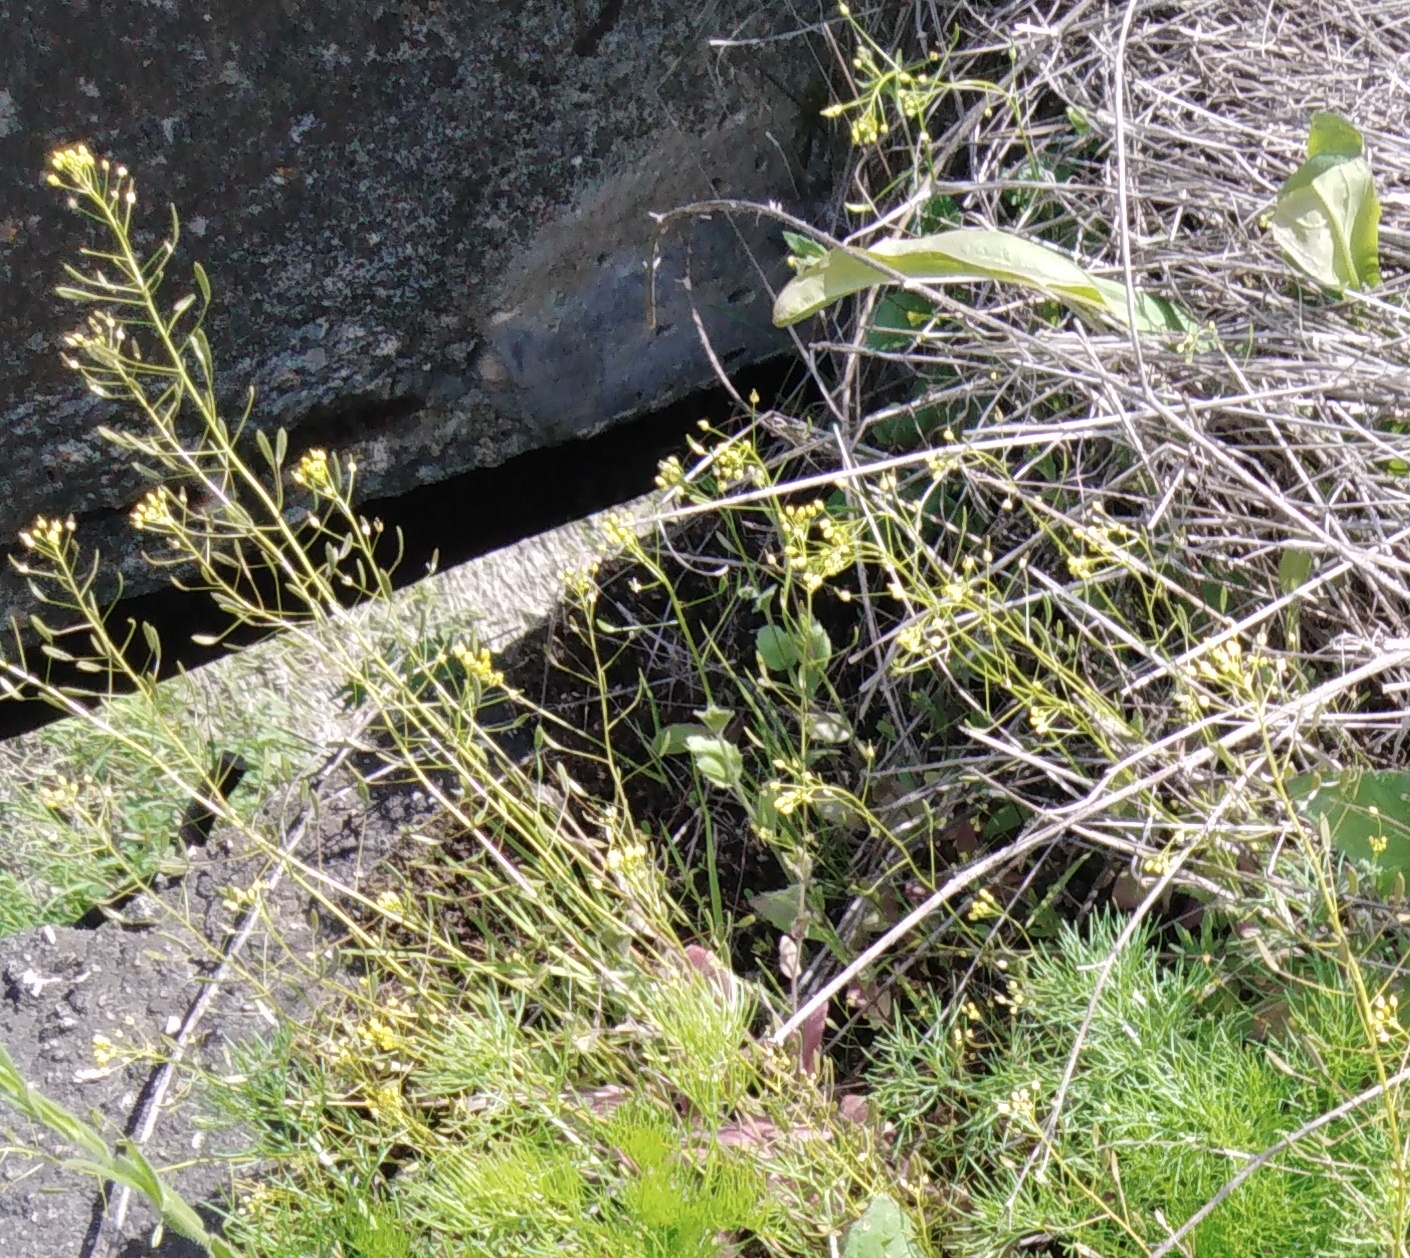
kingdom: Plantae
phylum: Tracheophyta
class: Magnoliopsida
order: Brassicales
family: Brassicaceae
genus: Draba
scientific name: Draba nemorosa
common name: Wood whitlow-grass
